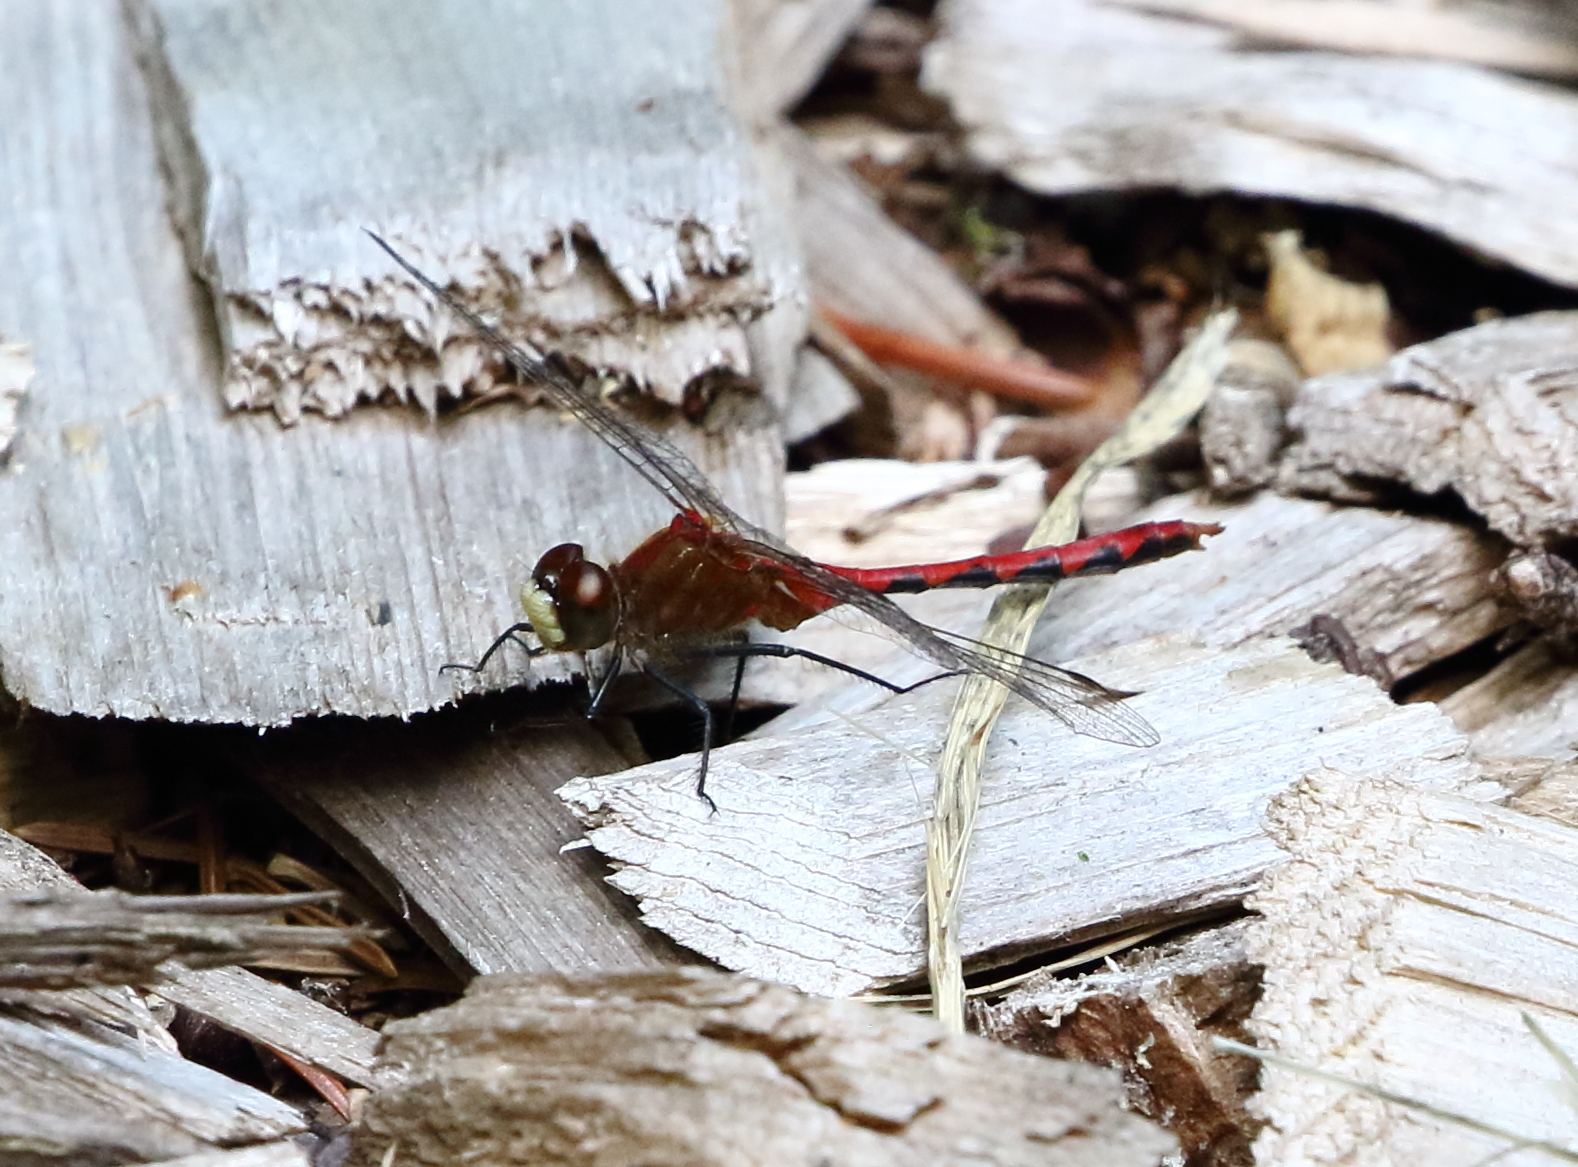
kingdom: Animalia
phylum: Arthropoda
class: Insecta
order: Odonata
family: Libellulidae
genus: Sympetrum
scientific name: Sympetrum obtrusum
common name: White-faced meadowhawk
